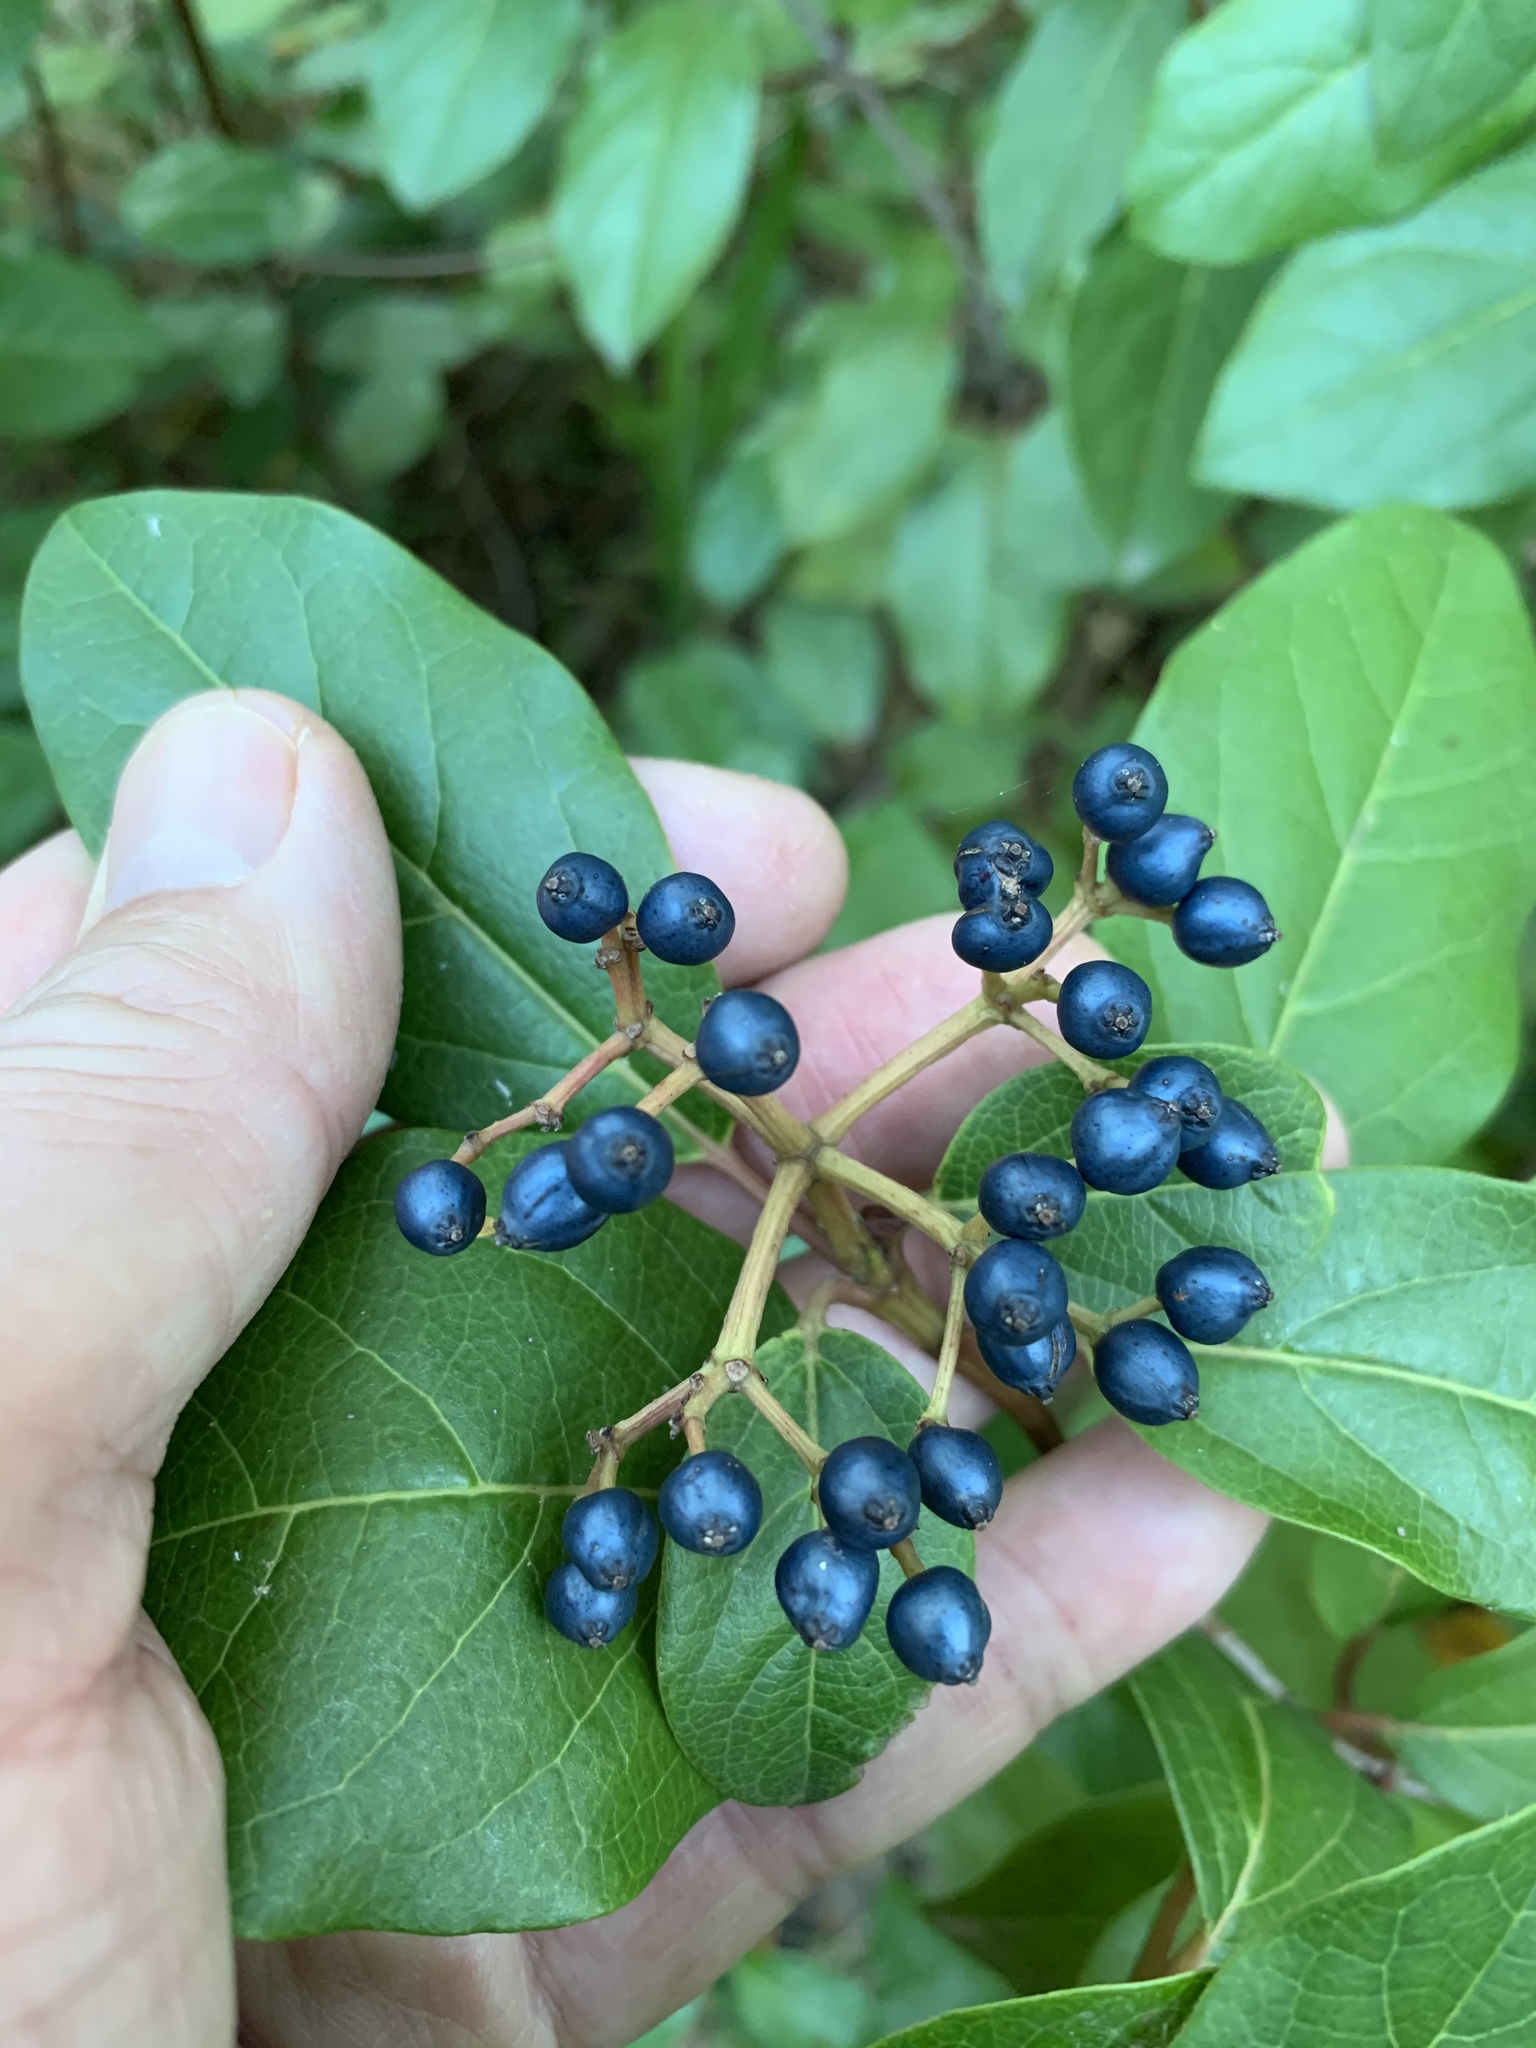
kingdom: Plantae
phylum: Tracheophyta
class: Magnoliopsida
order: Dipsacales
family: Viburnaceae
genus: Viburnum
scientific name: Viburnum tinus
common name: Laurustinus
